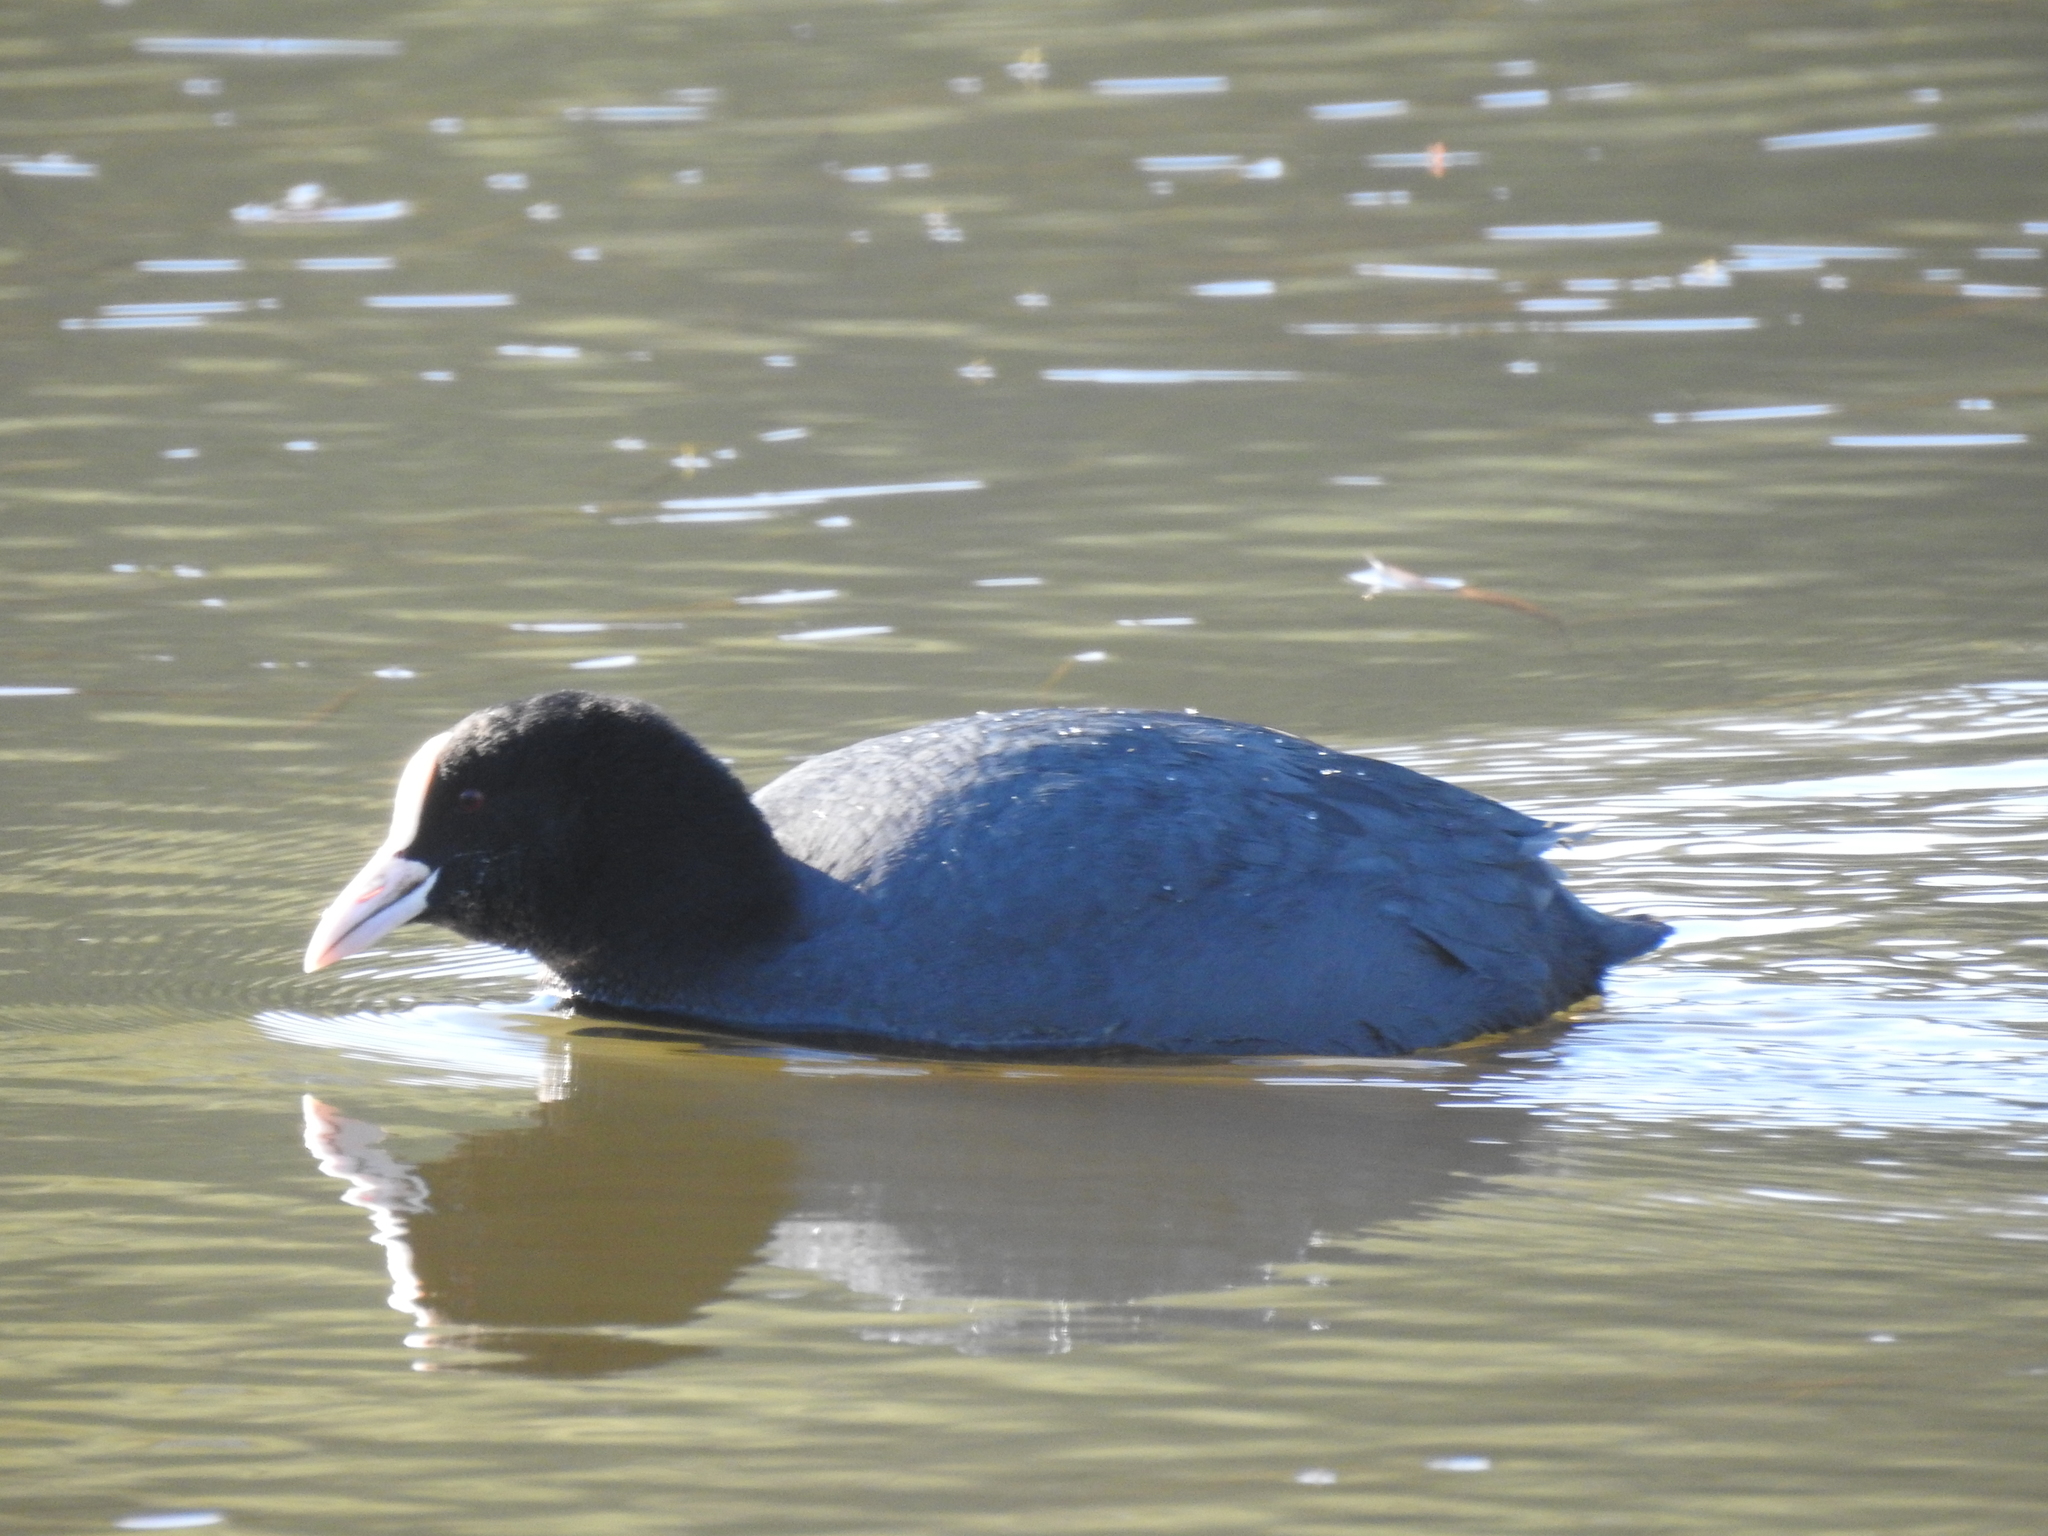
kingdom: Animalia
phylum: Chordata
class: Aves
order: Gruiformes
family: Rallidae
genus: Fulica
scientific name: Fulica atra
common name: Eurasian coot
